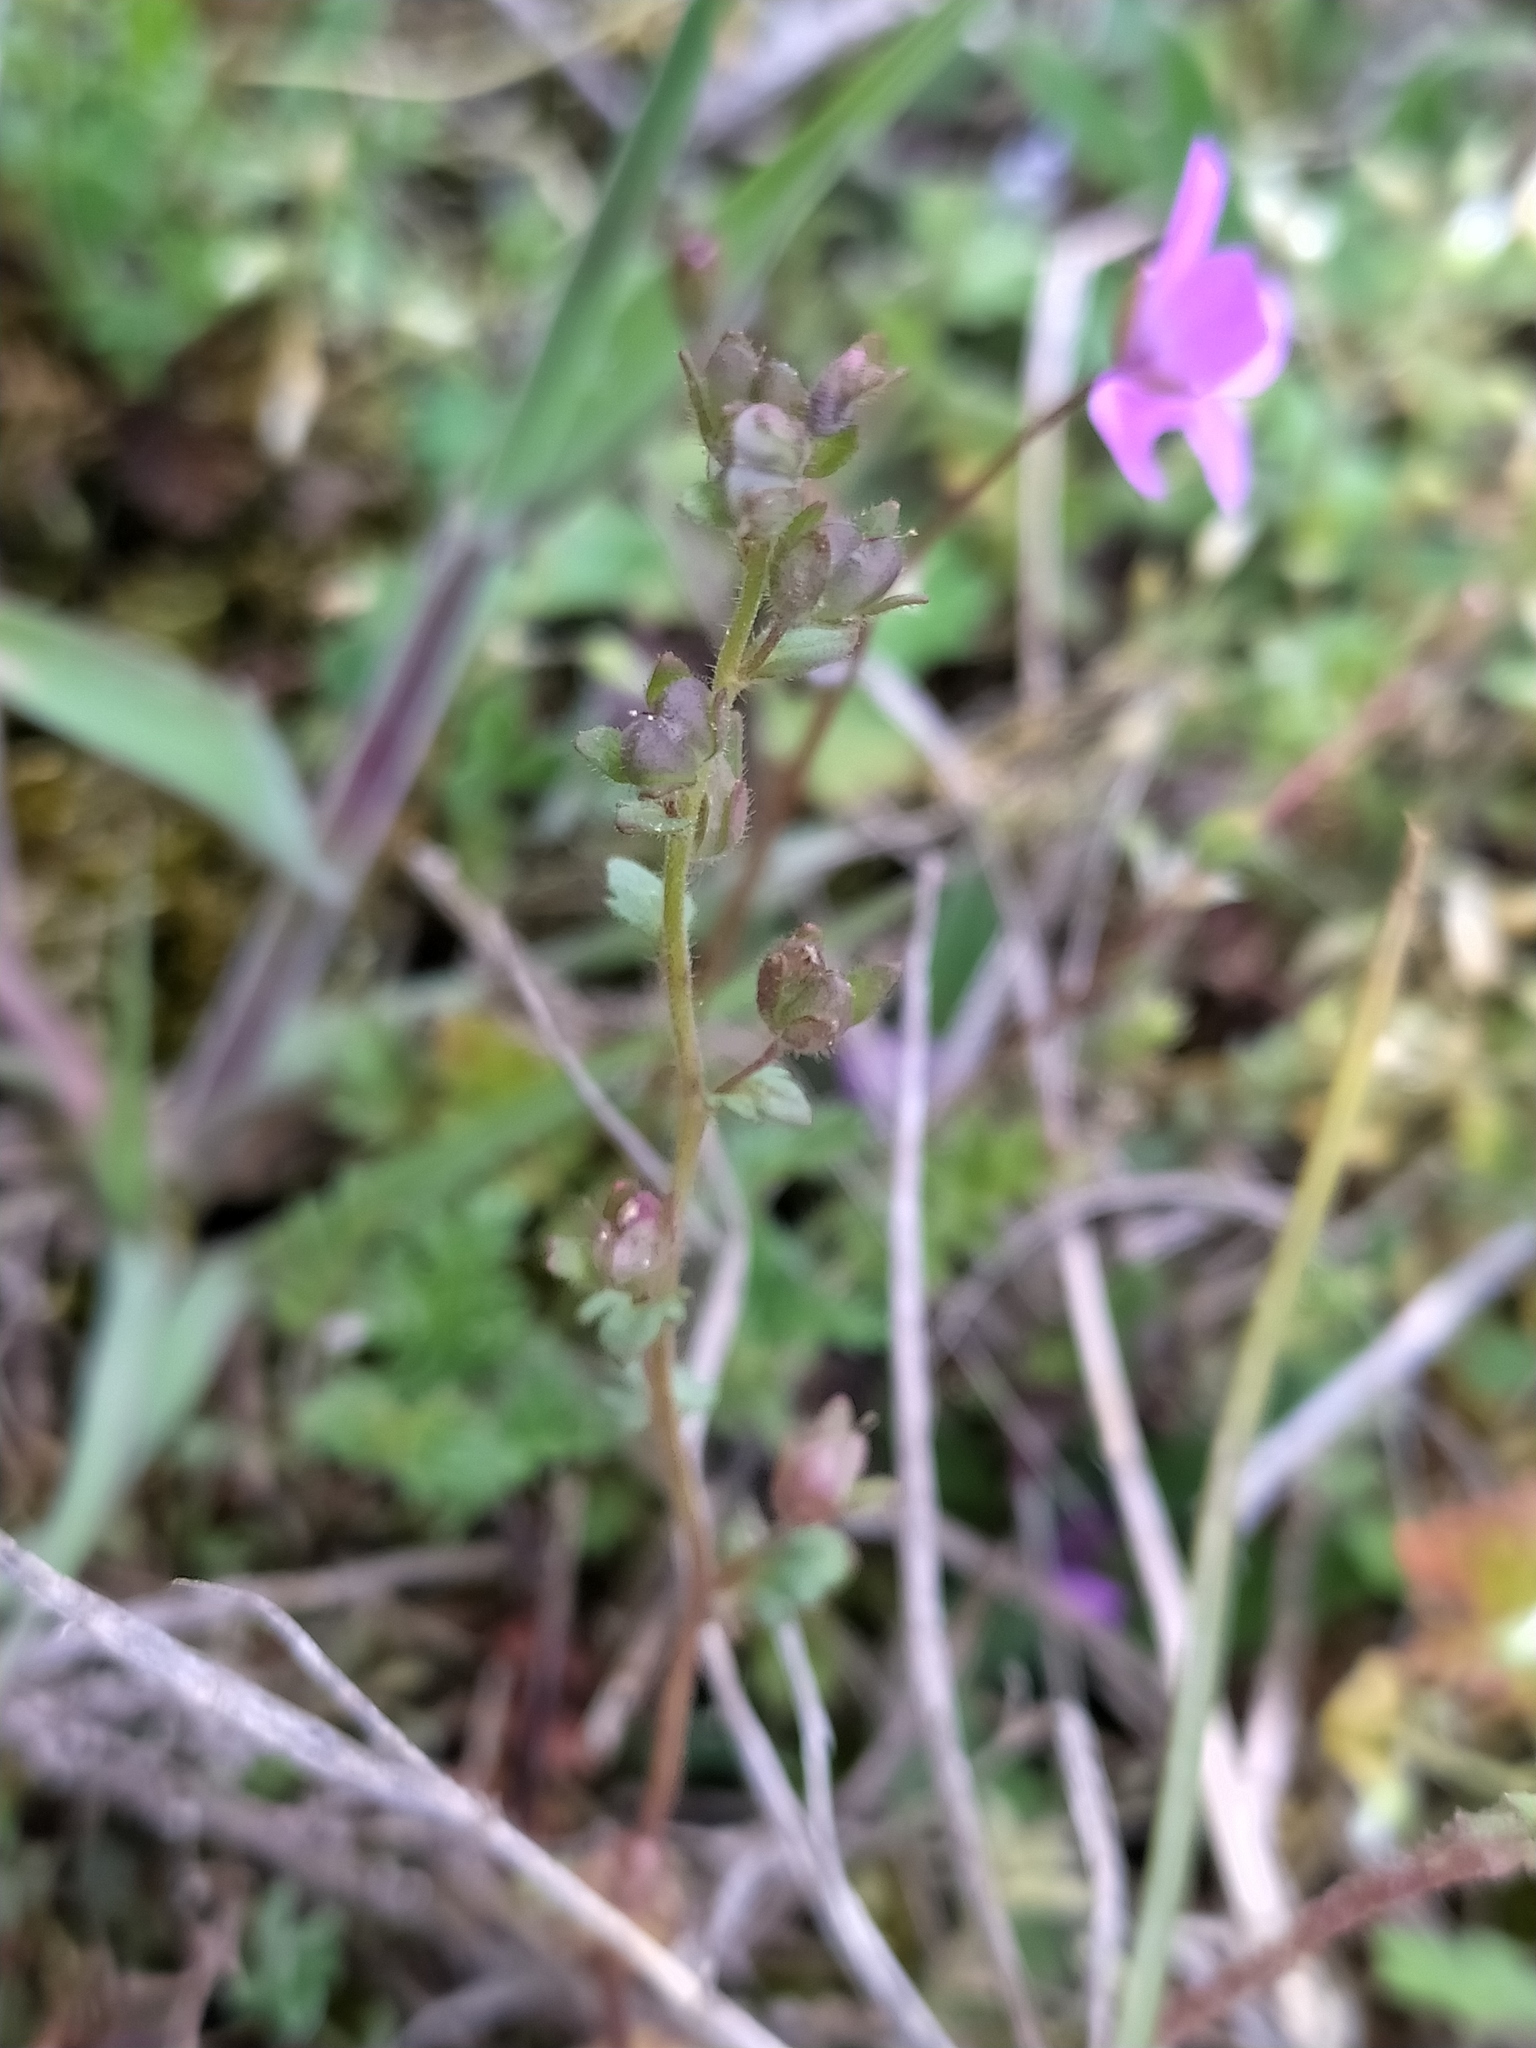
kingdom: Plantae
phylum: Tracheophyta
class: Magnoliopsida
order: Lamiales
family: Plantaginaceae
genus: Veronica
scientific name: Veronica praecox
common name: Breckland speedwell
